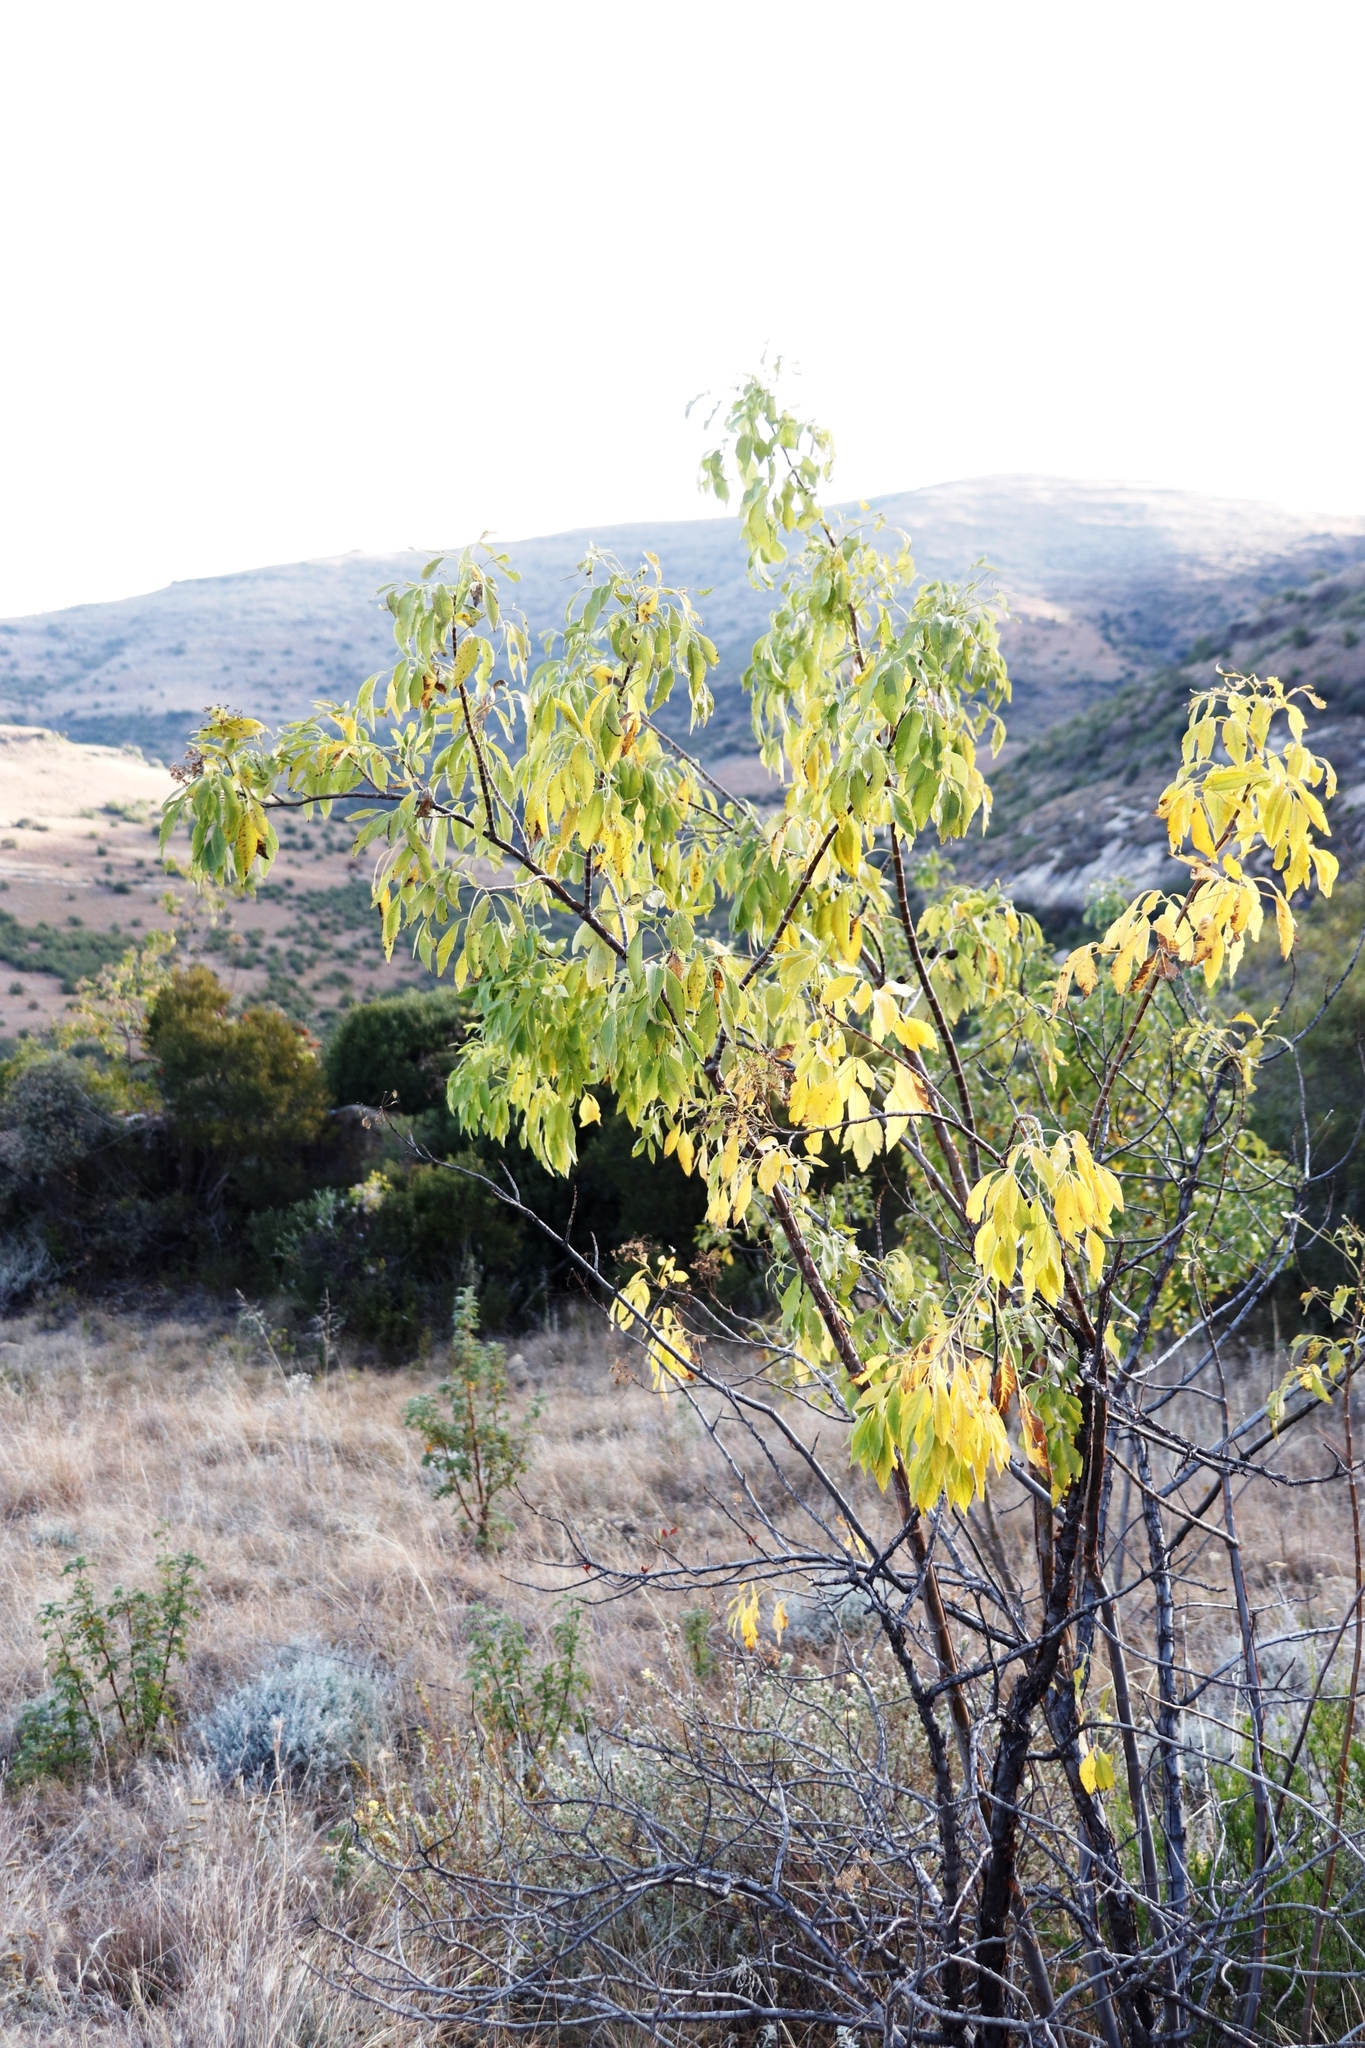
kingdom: Plantae
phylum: Tracheophyta
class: Magnoliopsida
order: Apiales
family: Apiaceae
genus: Heteromorpha
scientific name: Heteromorpha arborescens
